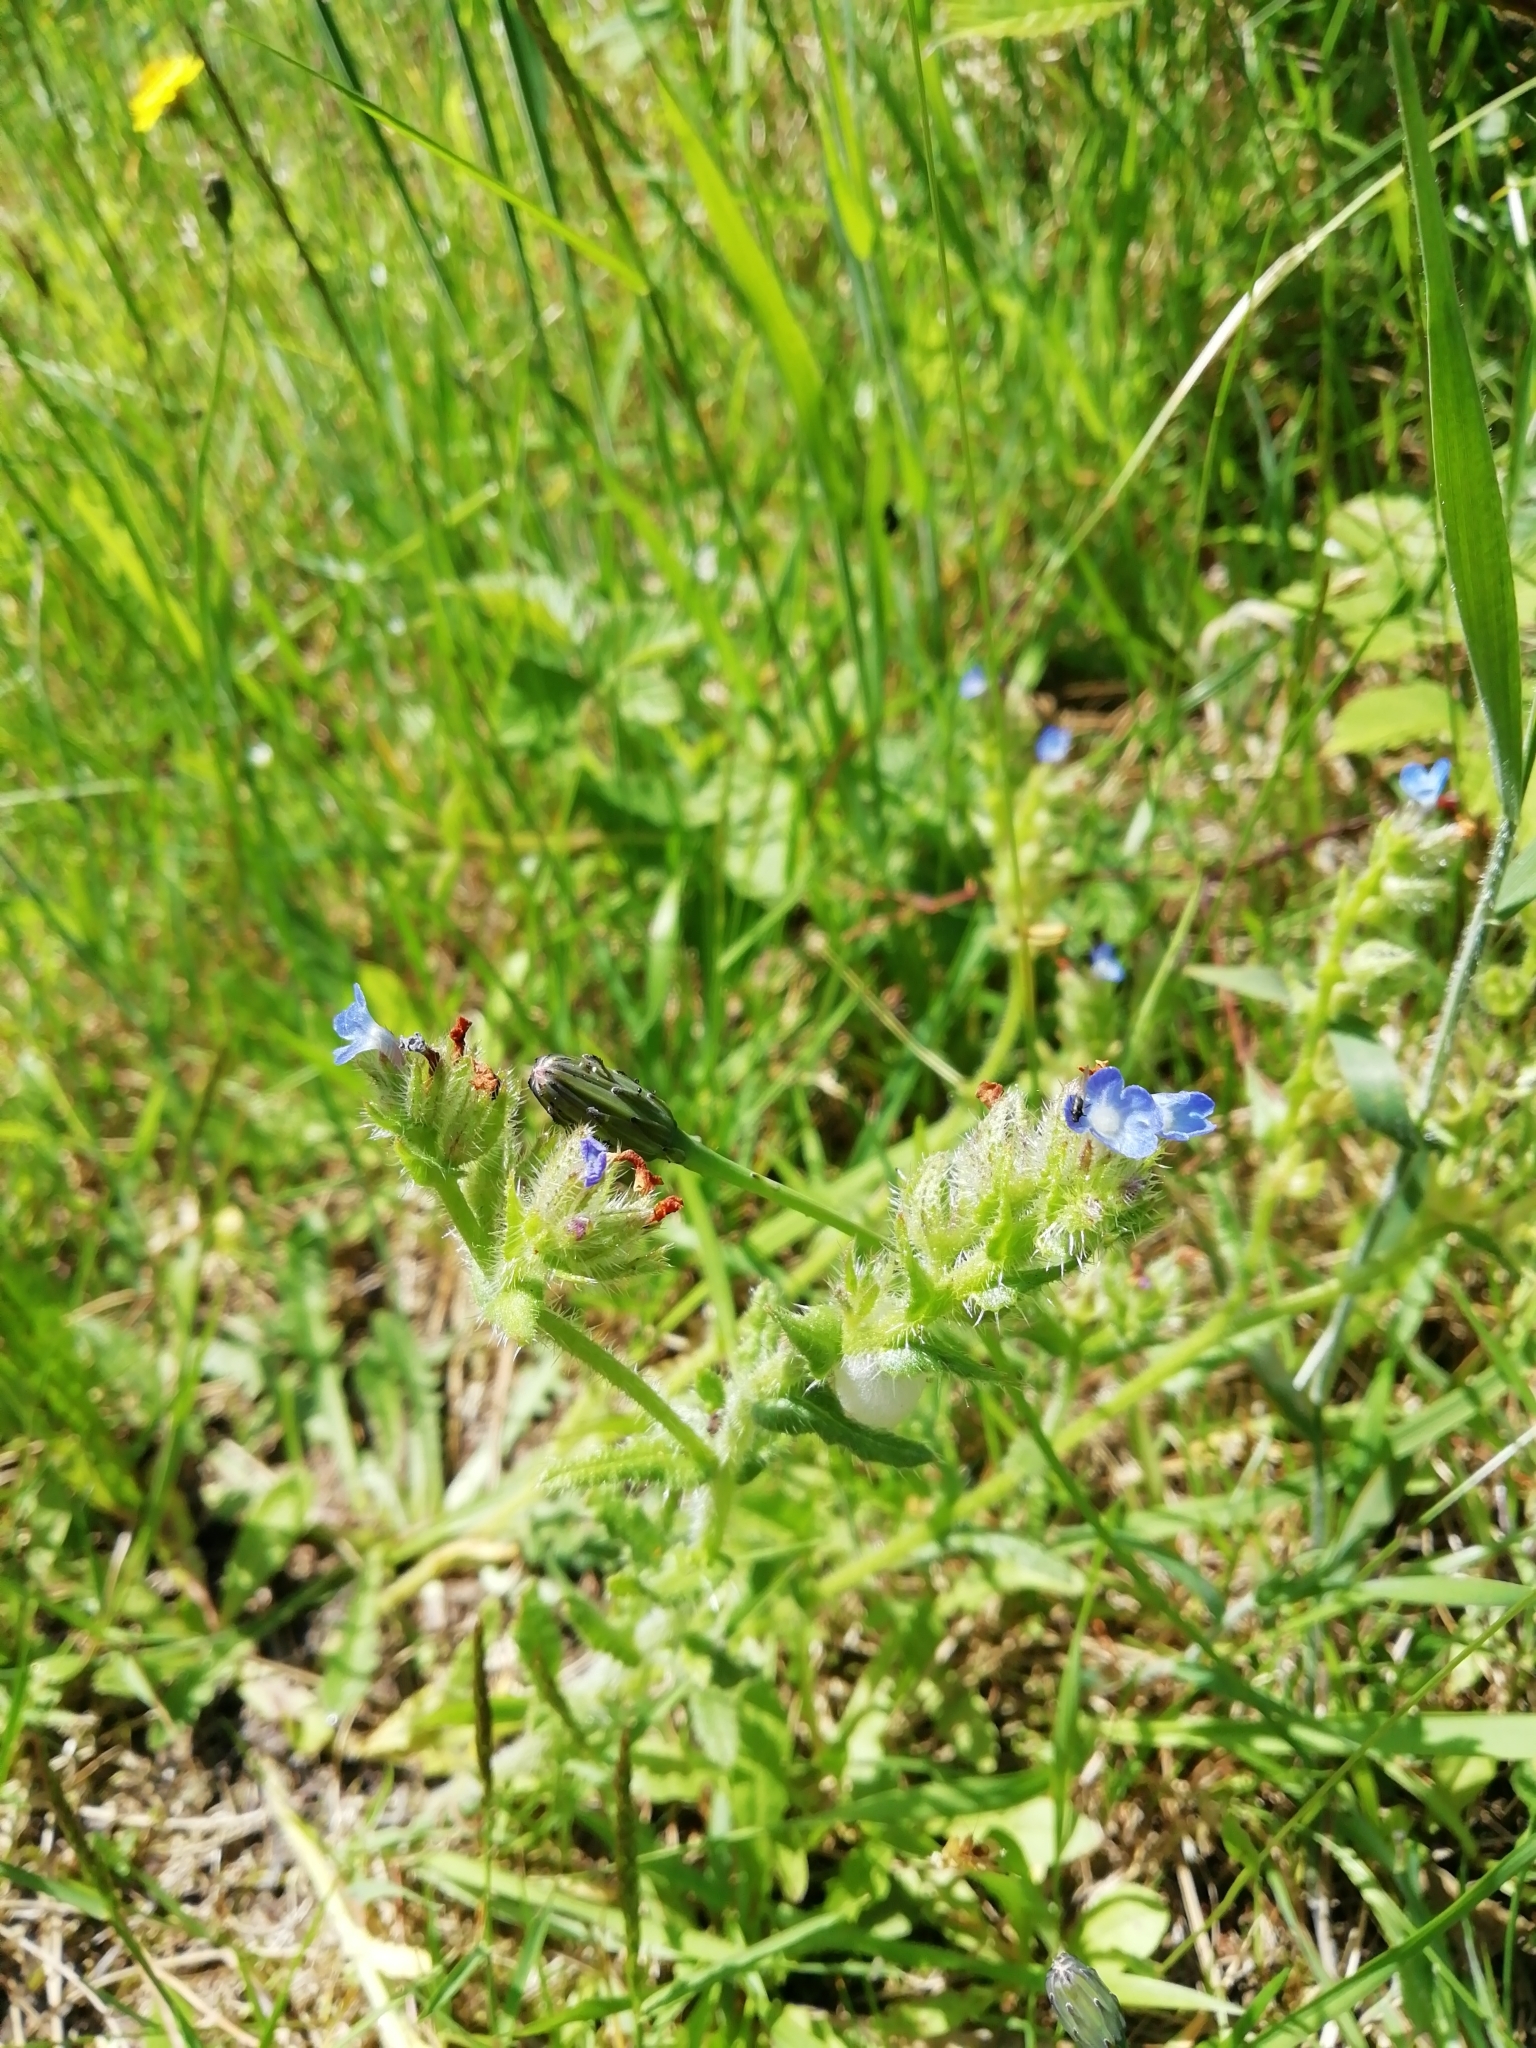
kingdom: Plantae
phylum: Tracheophyta
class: Magnoliopsida
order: Boraginales
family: Boraginaceae
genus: Lycopsis
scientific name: Lycopsis arvensis
